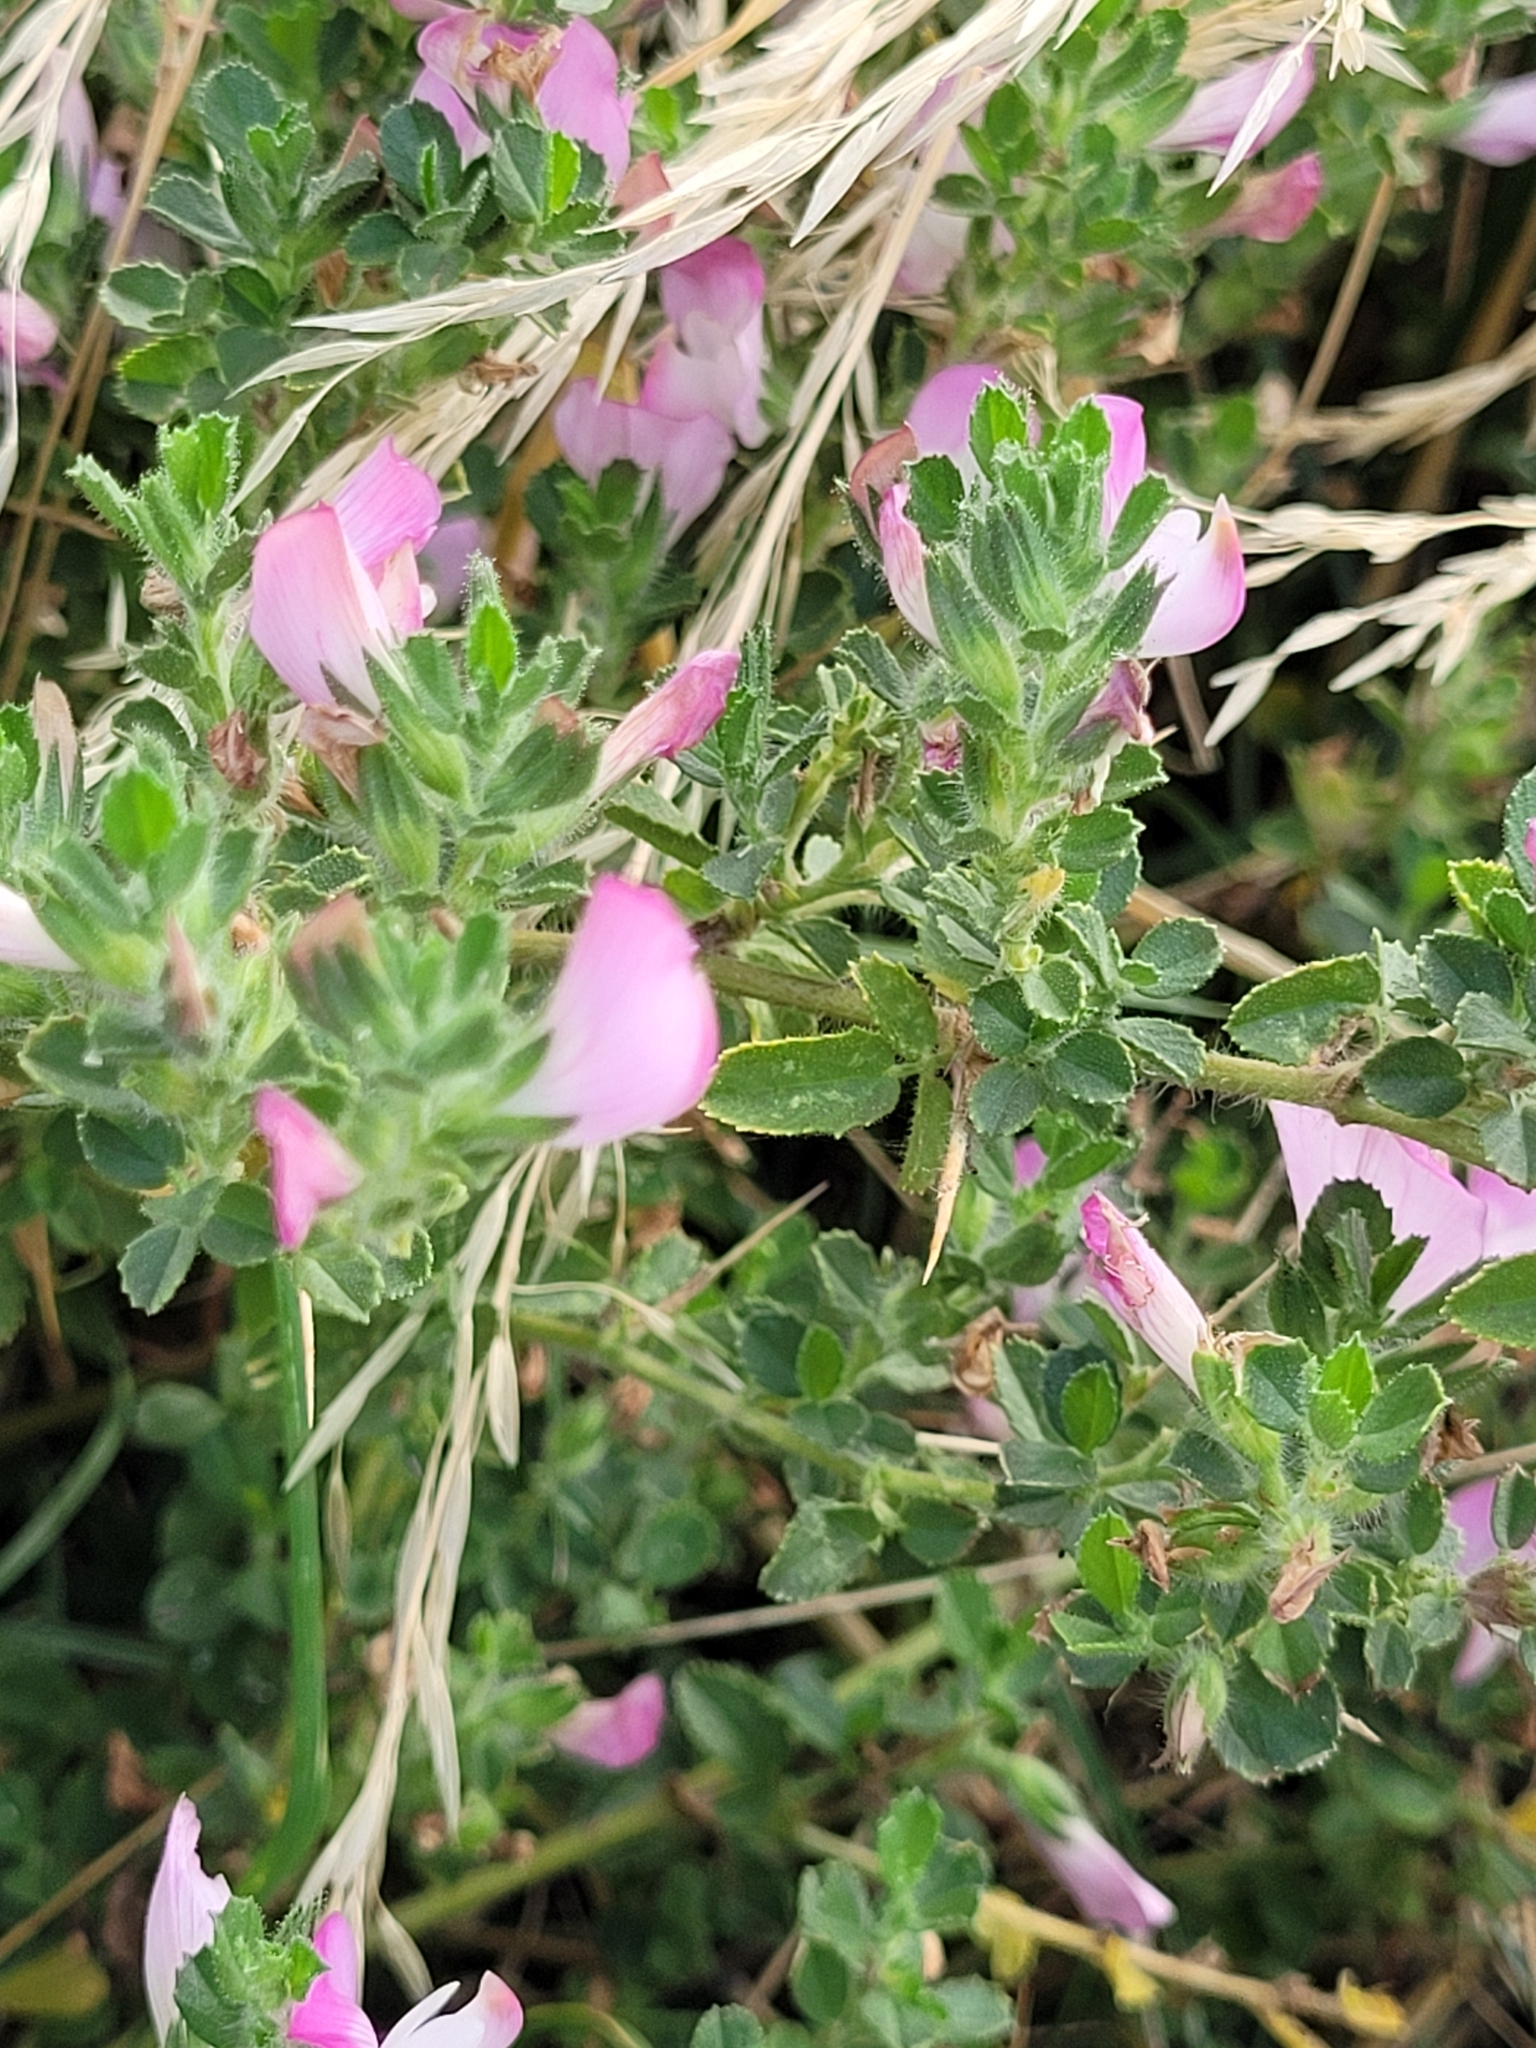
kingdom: Plantae
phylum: Tracheophyta
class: Magnoliopsida
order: Fabales
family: Fabaceae
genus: Ononis
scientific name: Ononis spinosa
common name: Spiny restharrow
